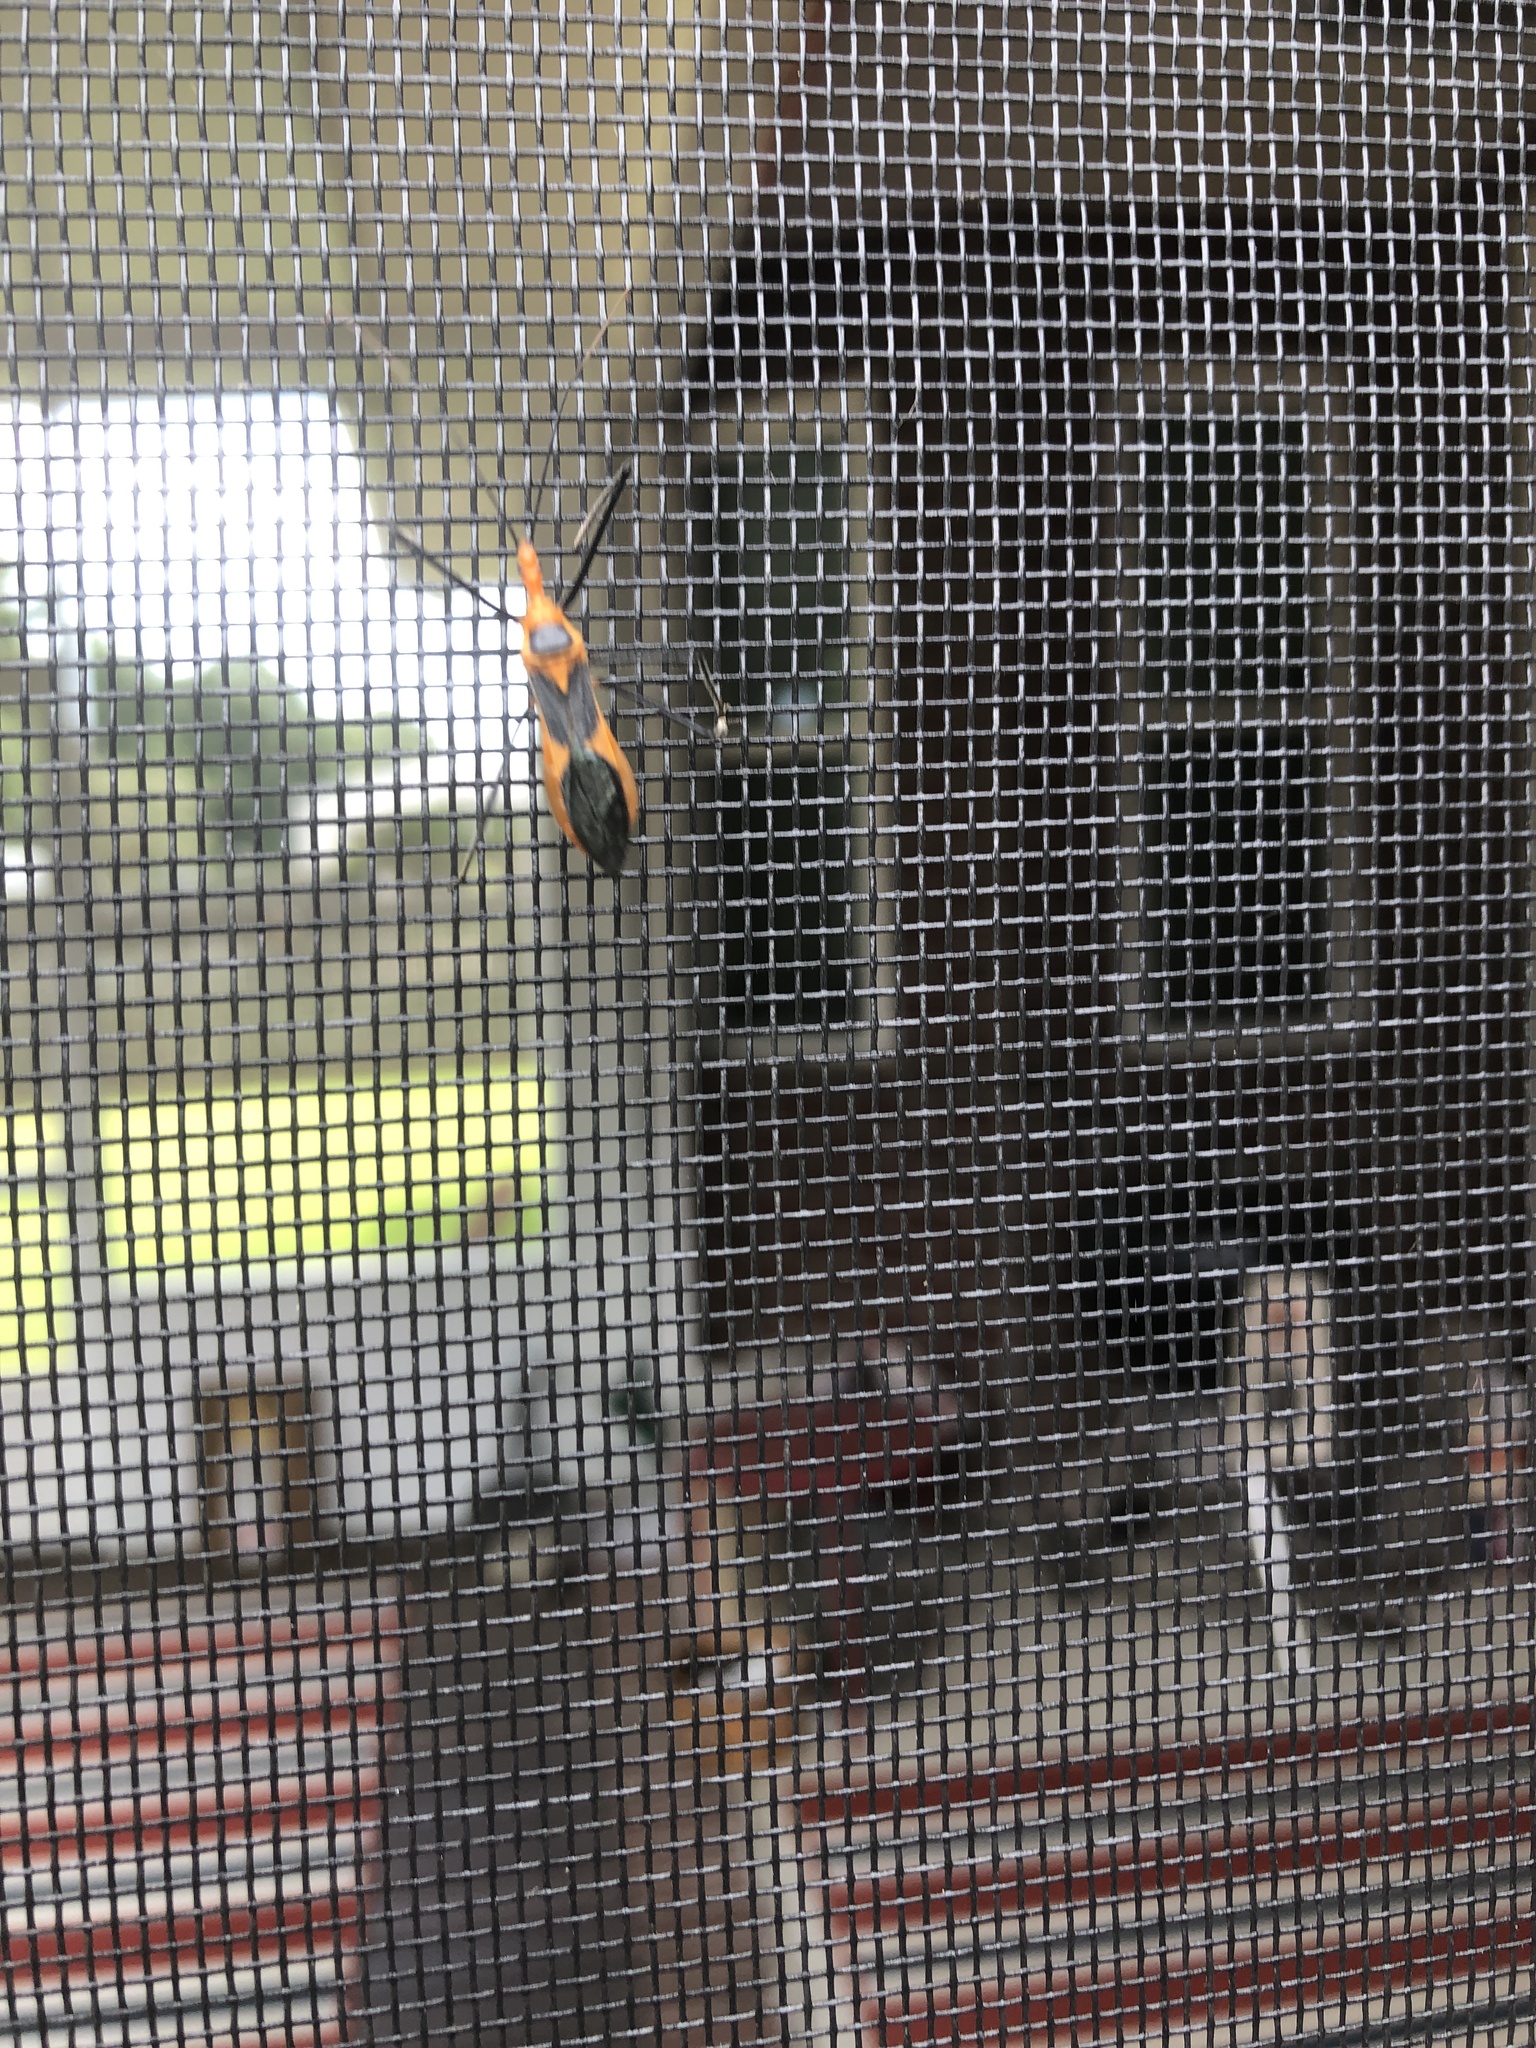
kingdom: Animalia
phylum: Arthropoda
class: Insecta
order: Hemiptera
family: Reduviidae
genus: Zelus
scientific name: Zelus longipes
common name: Milkweed assassin bug
